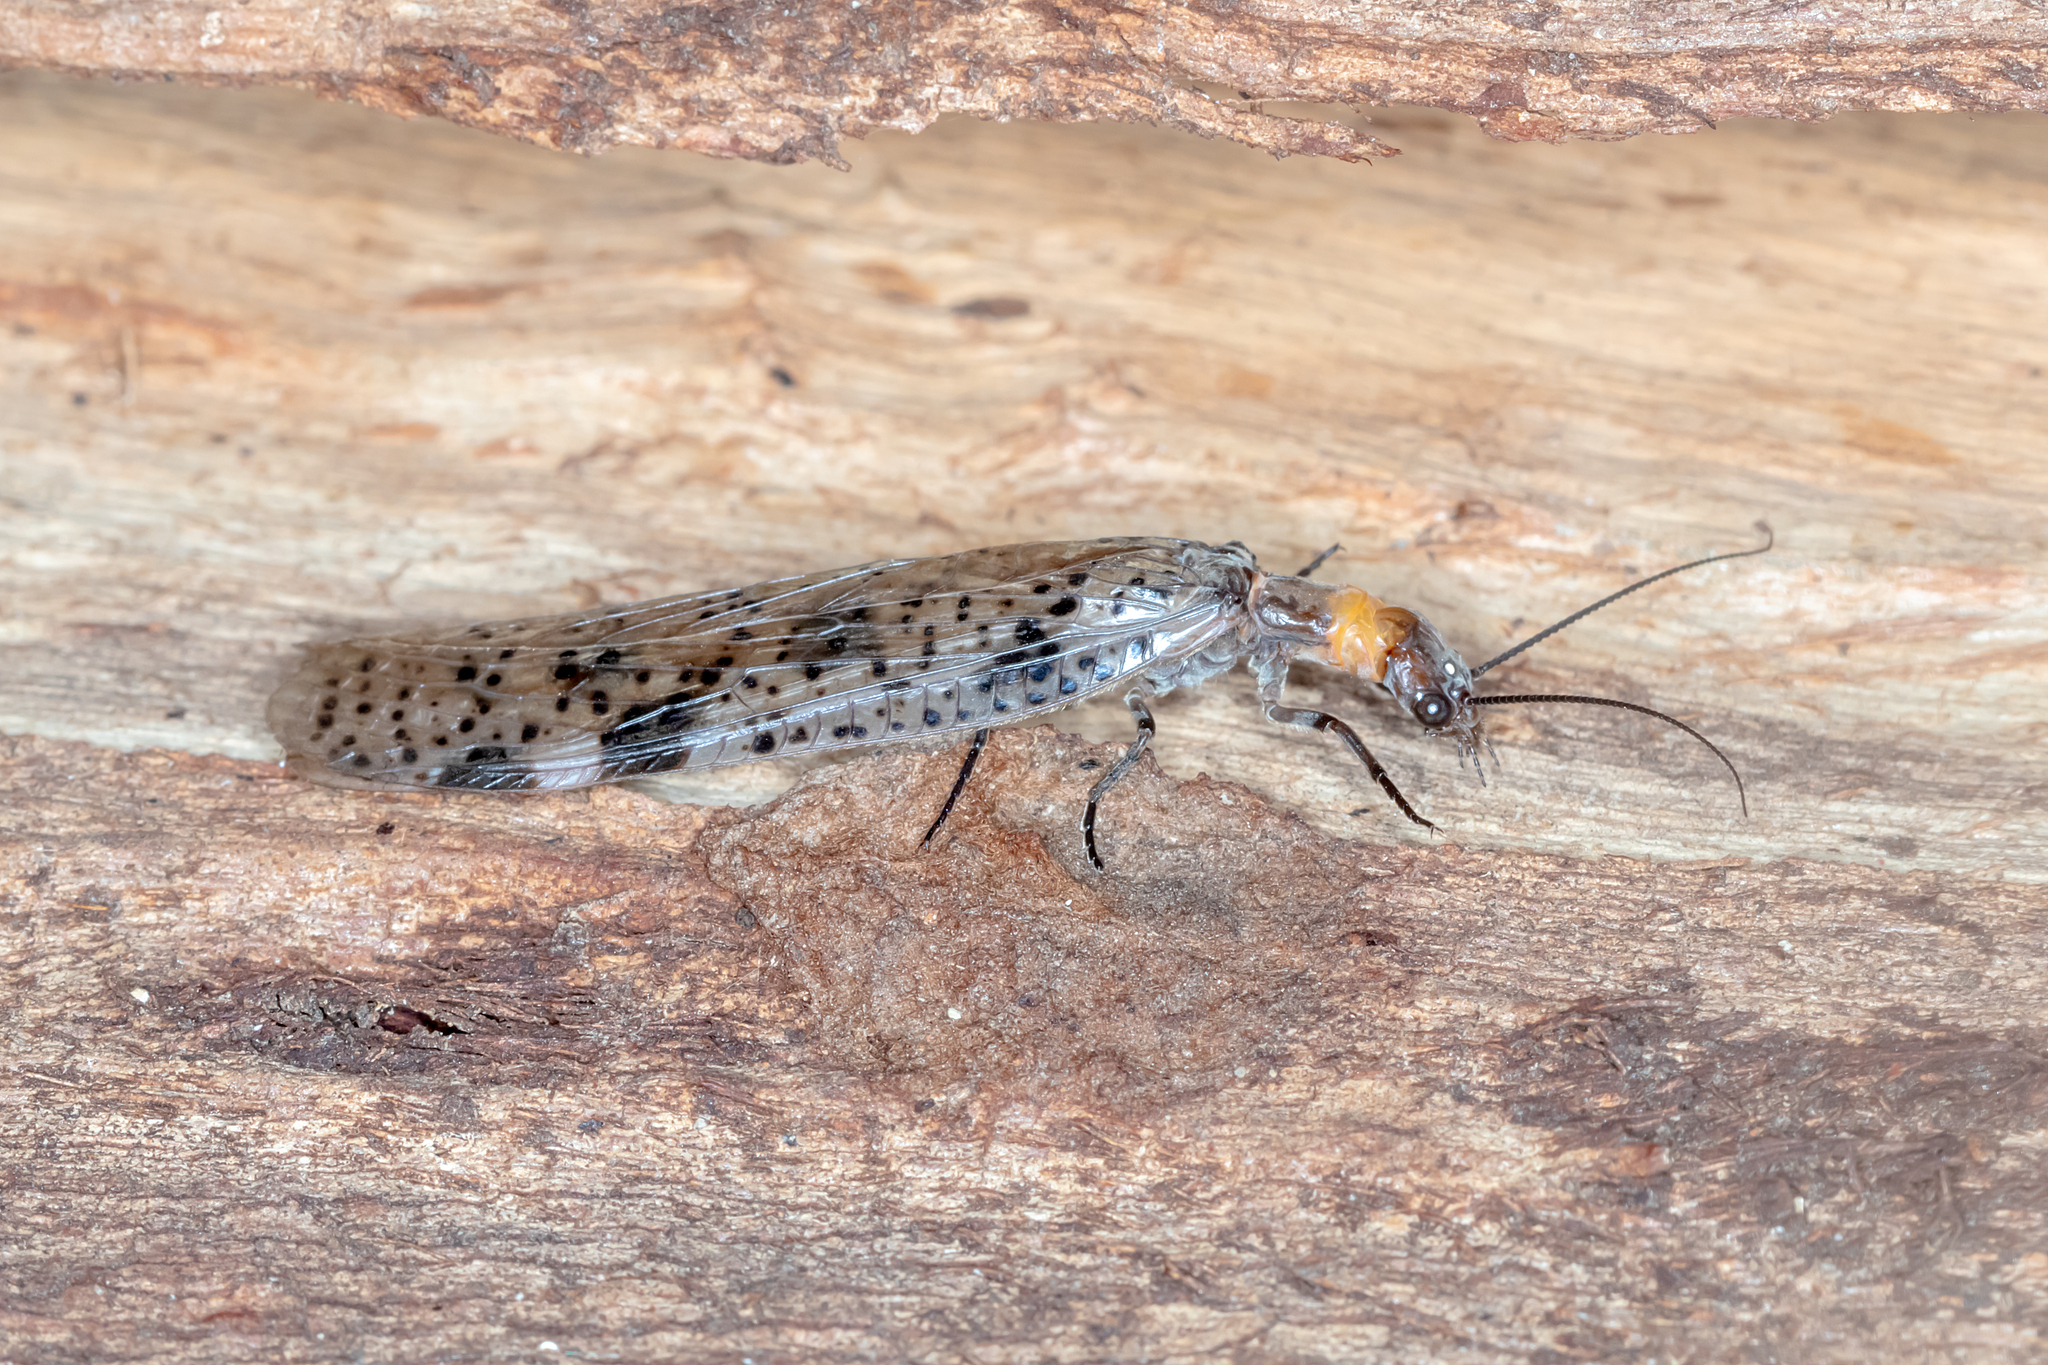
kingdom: Animalia
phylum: Arthropoda
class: Insecta
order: Megaloptera
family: Corydalidae
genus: Archichauliodes
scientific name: Archichauliodes guttiferus
